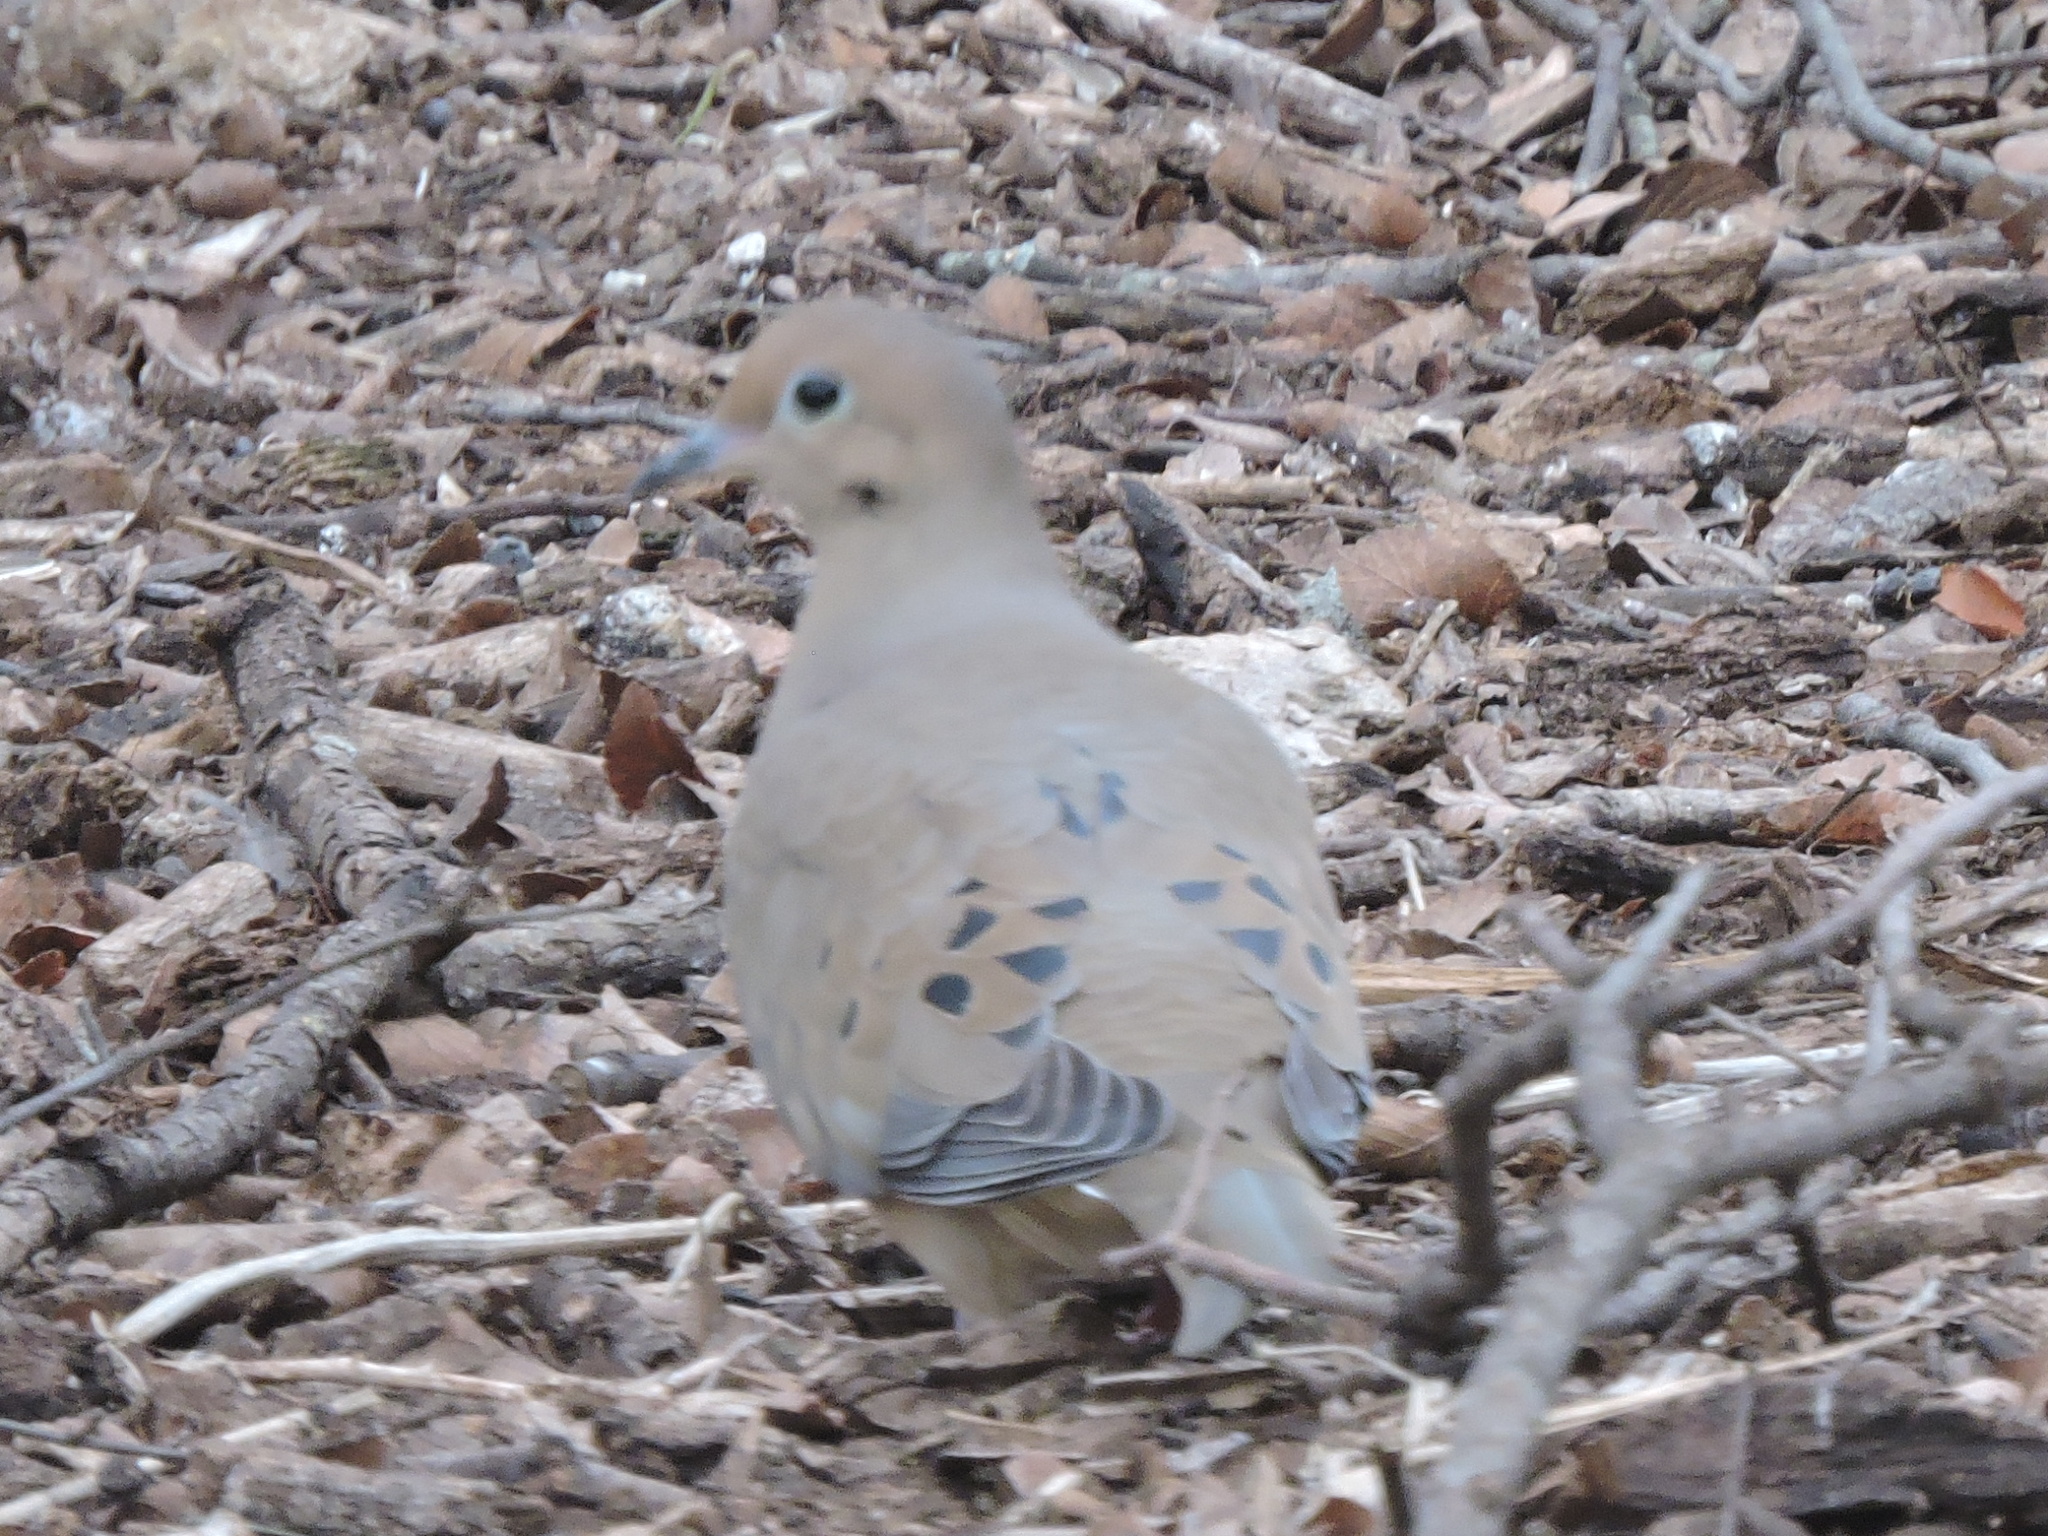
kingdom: Animalia
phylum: Chordata
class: Aves
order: Columbiformes
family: Columbidae
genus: Zenaida
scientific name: Zenaida macroura
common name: Mourning dove
